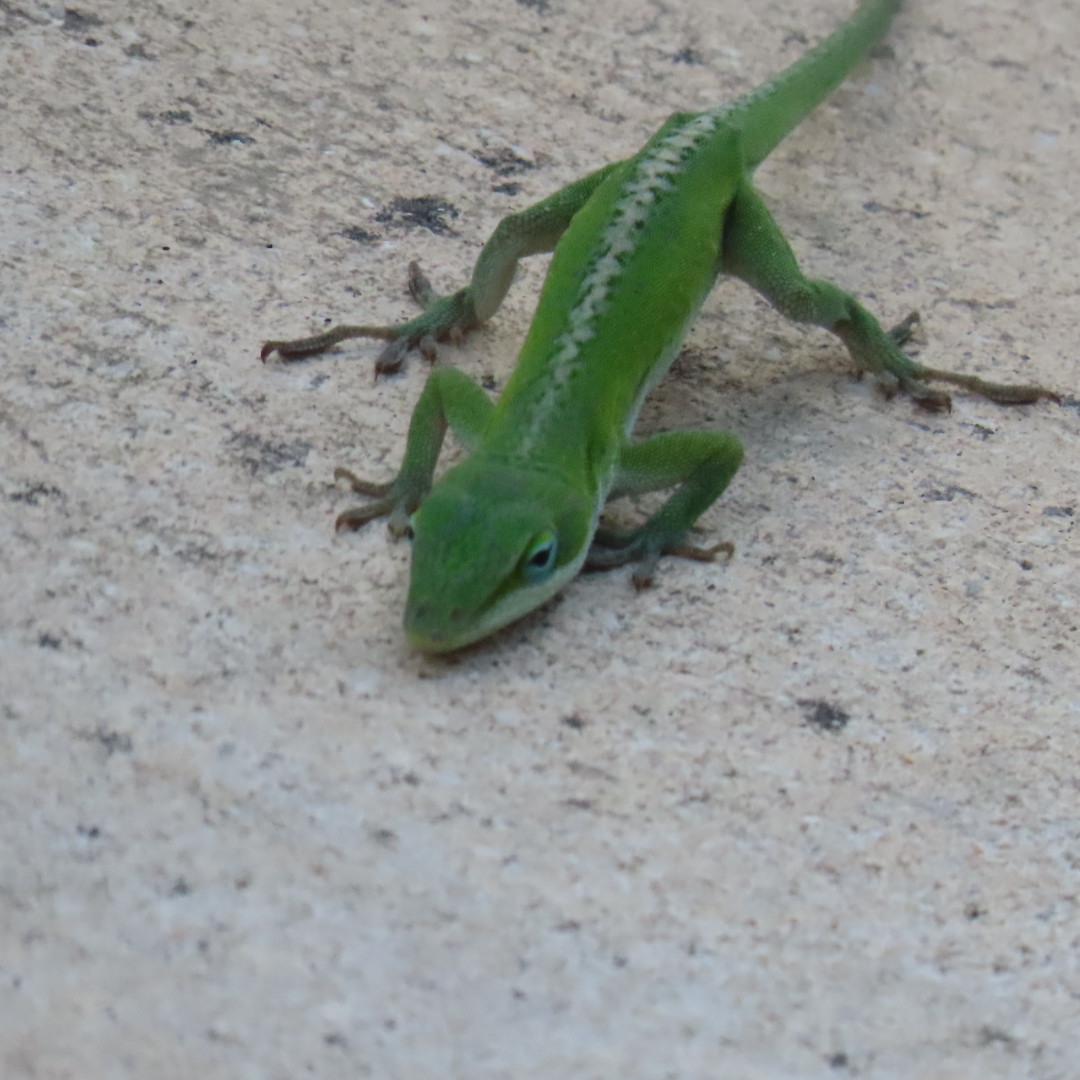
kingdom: Animalia
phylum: Chordata
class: Squamata
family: Dactyloidae
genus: Anolis
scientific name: Anolis carolinensis
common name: Green anole
